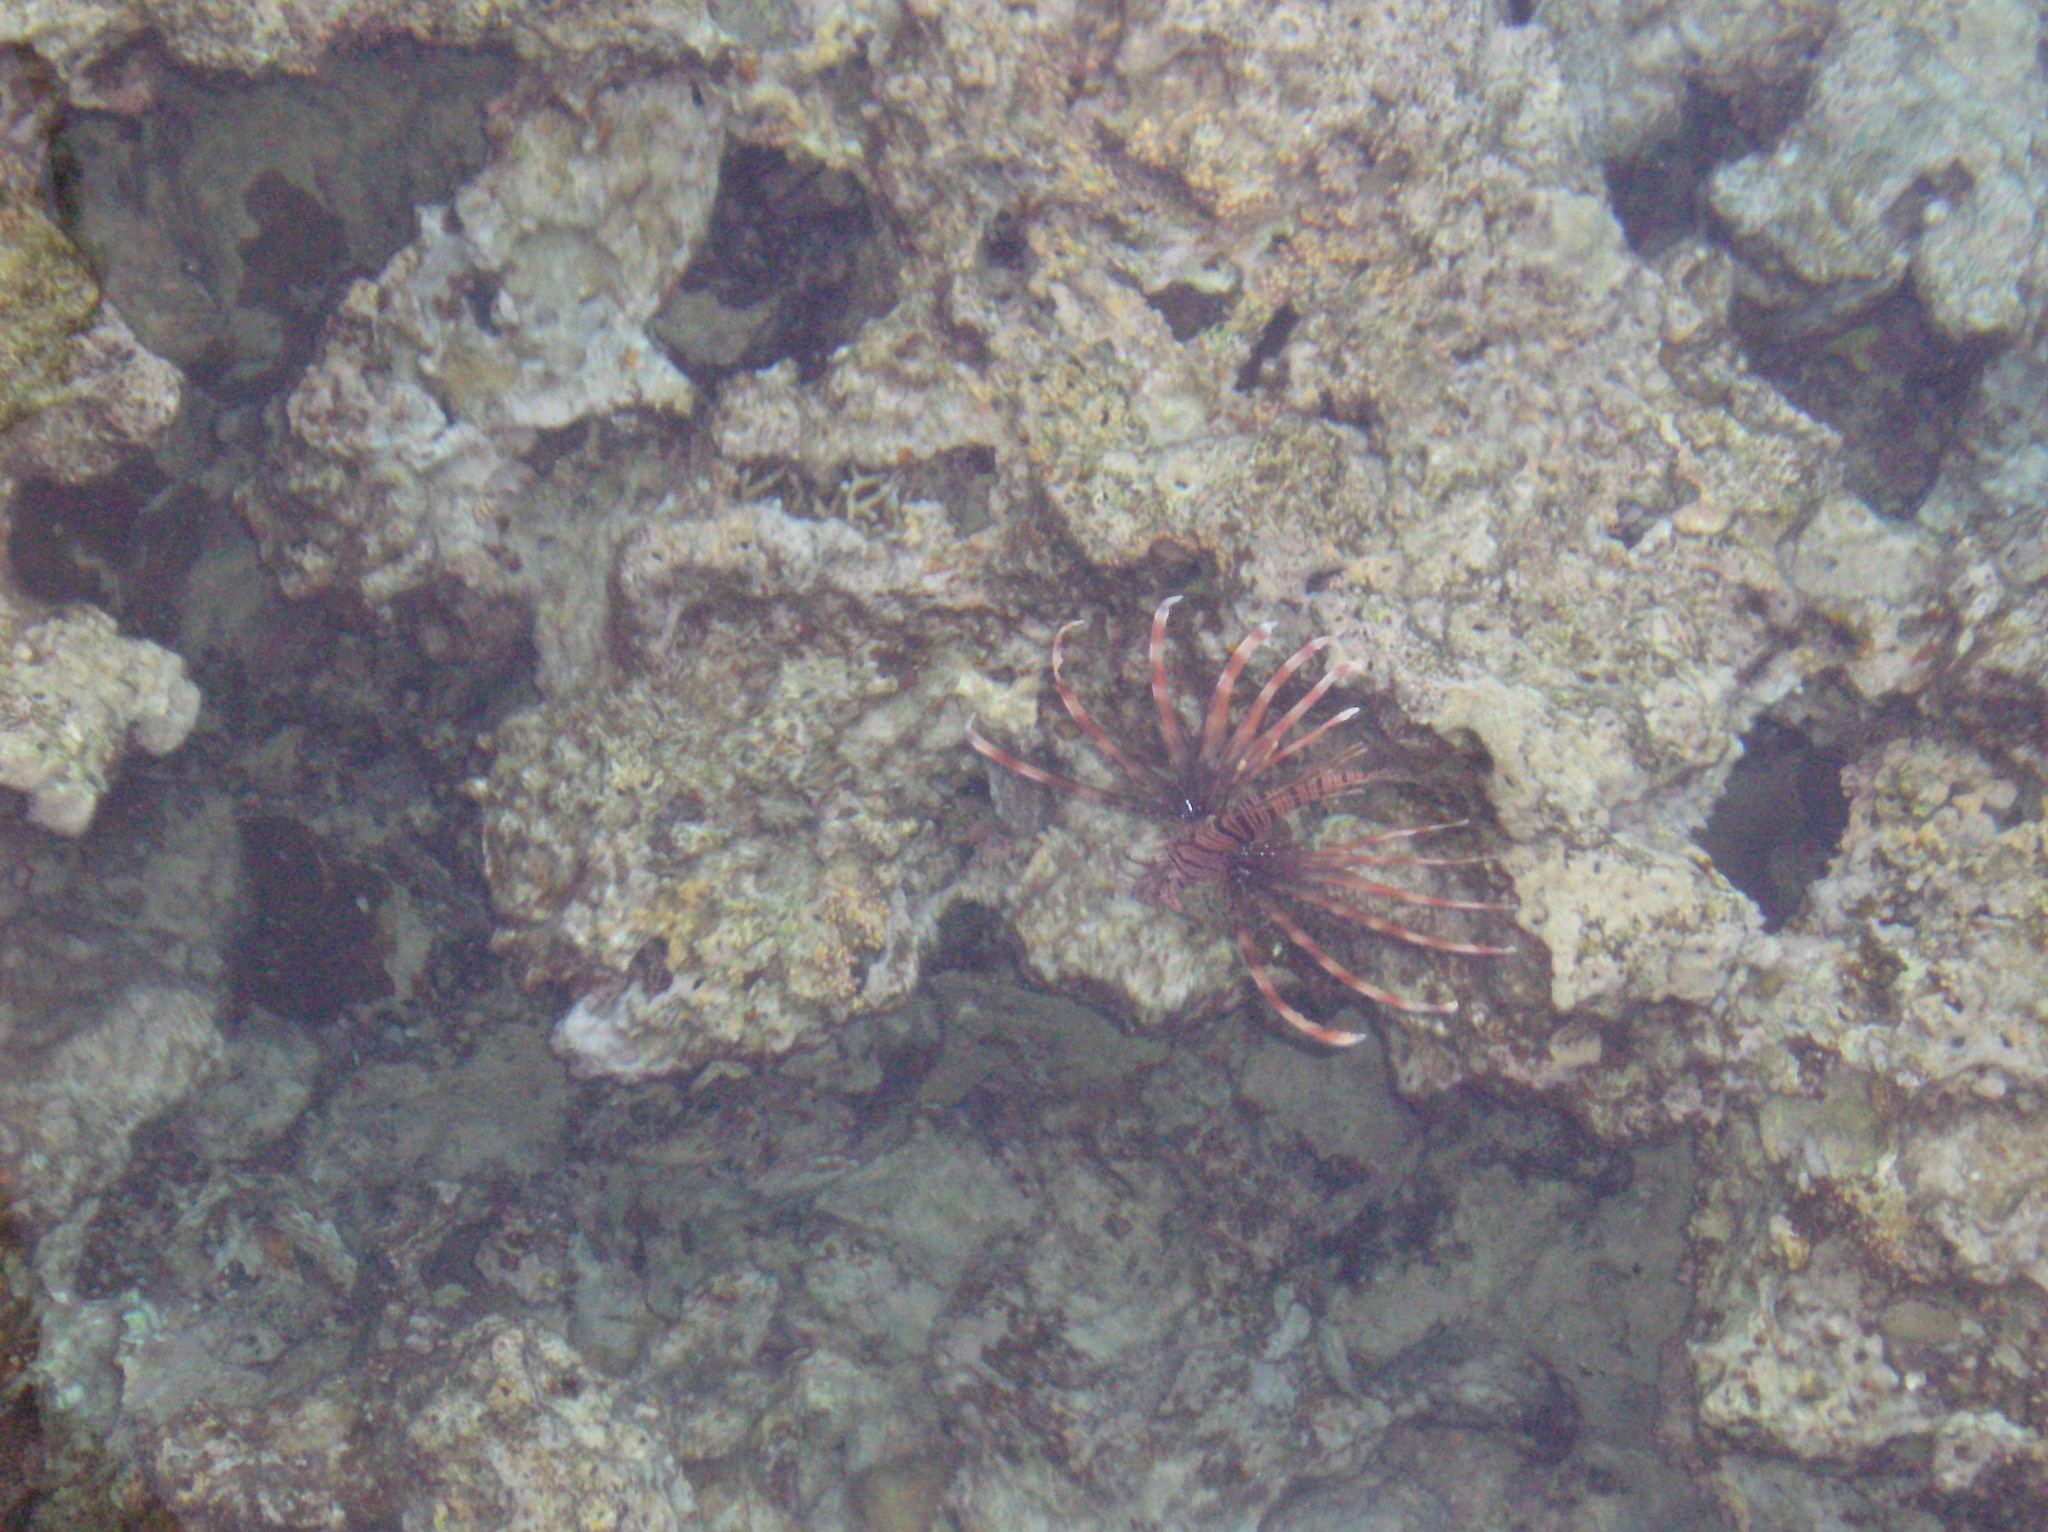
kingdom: Animalia
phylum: Chordata
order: Scorpaeniformes
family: Scorpaenidae
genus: Pterois
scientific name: Pterois miles
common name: Devil firefish
